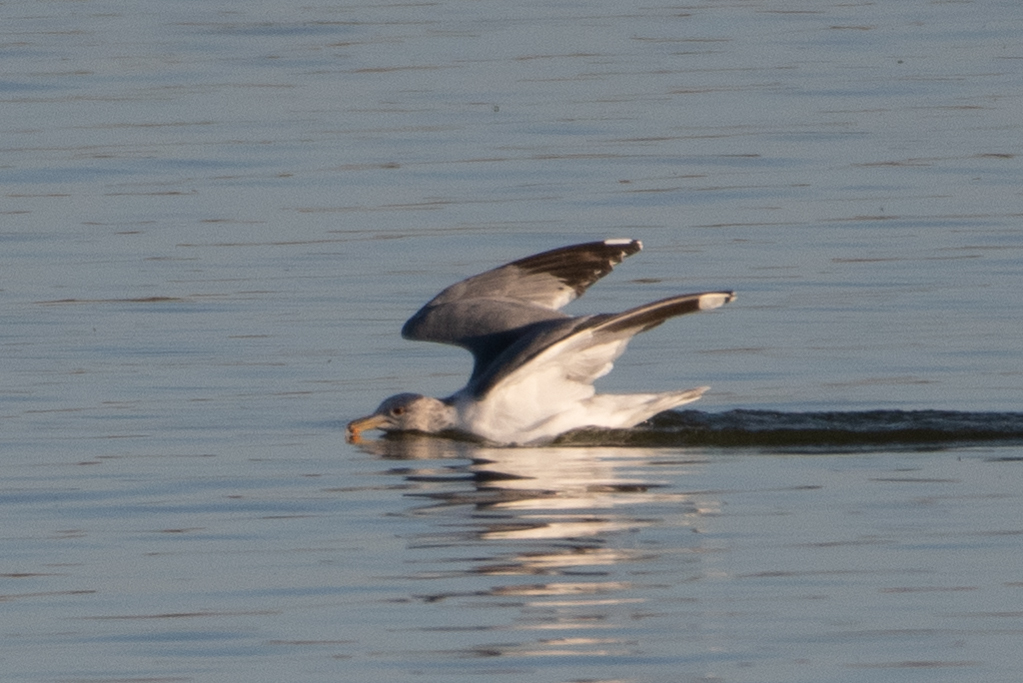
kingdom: Animalia
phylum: Chordata
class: Aves
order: Charadriiformes
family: Laridae
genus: Larus
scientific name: Larus californicus
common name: California gull
